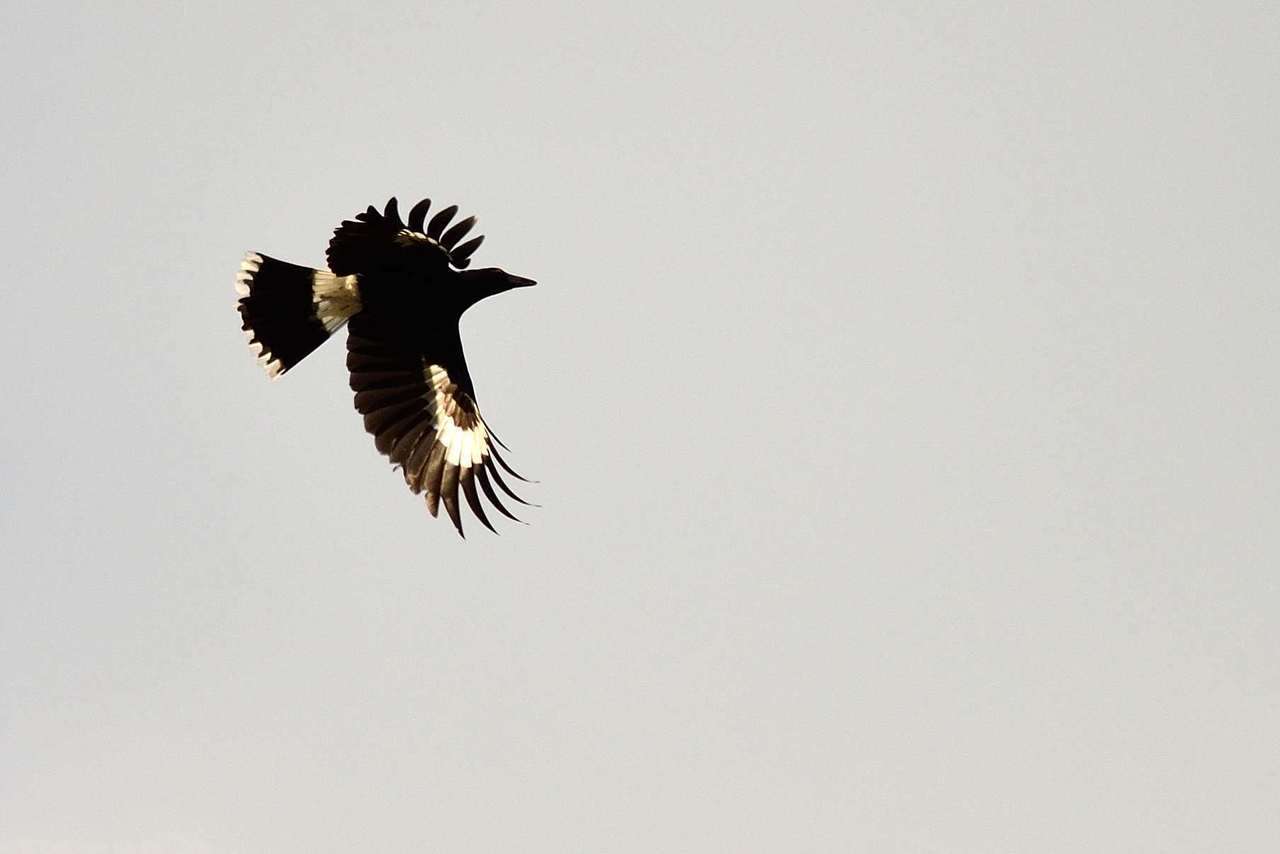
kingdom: Animalia
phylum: Chordata
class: Aves
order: Passeriformes
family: Cracticidae
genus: Strepera
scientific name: Strepera graculina
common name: Pied currawong
